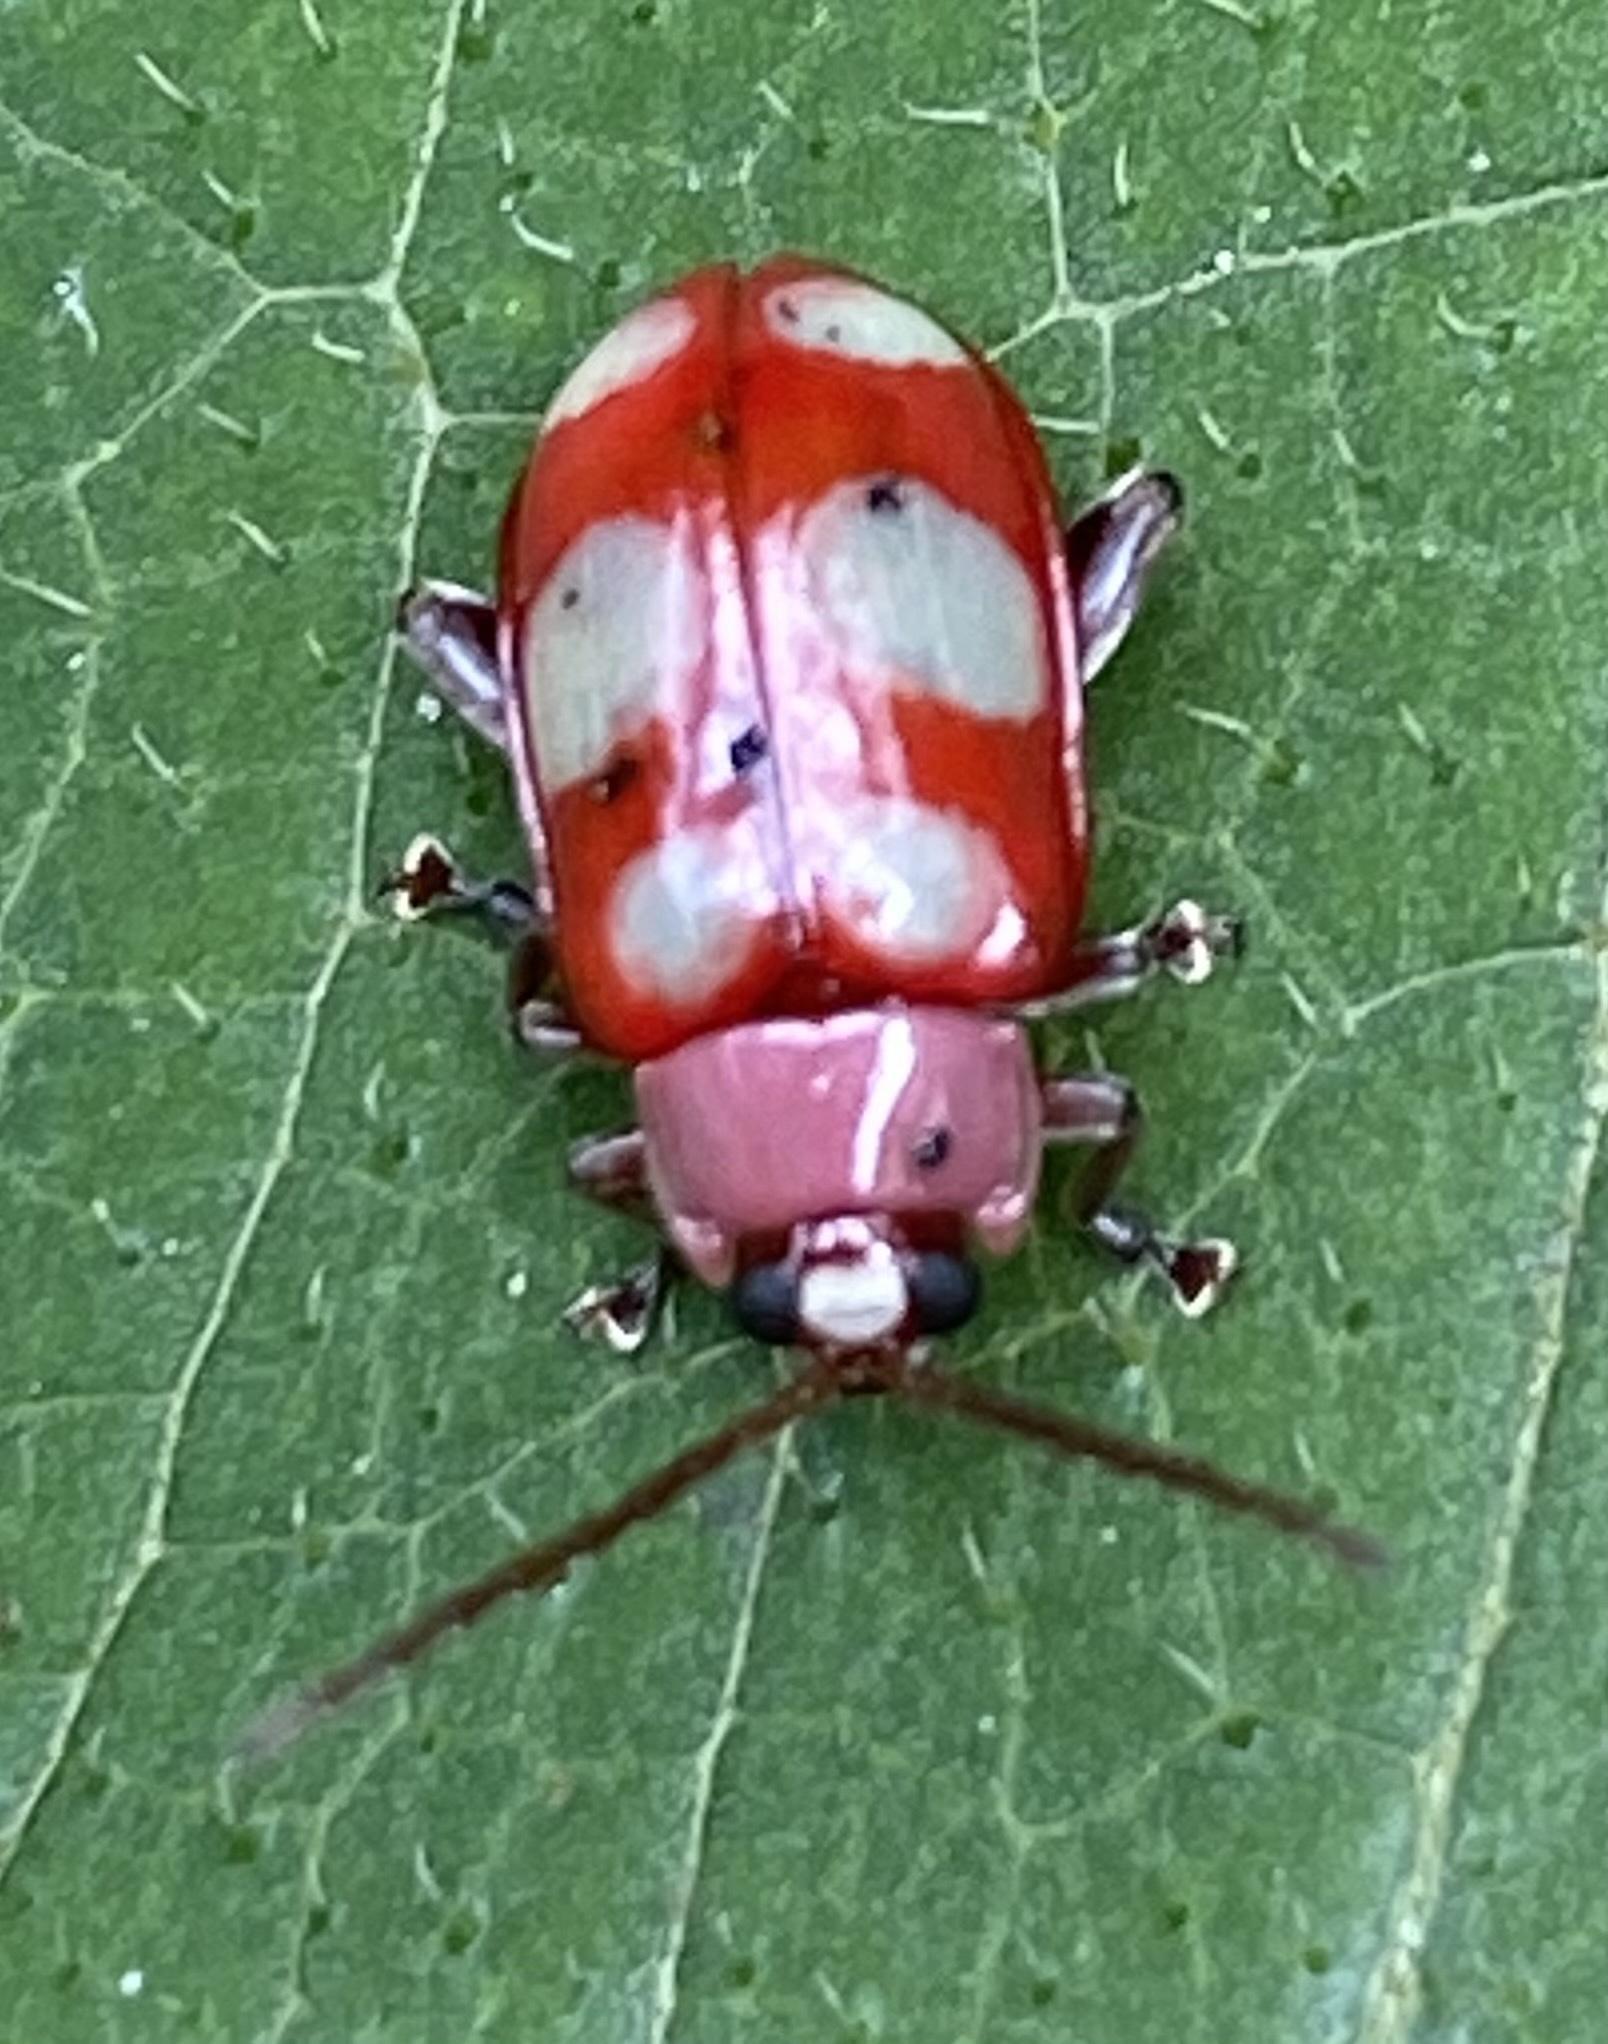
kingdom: Animalia
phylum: Arthropoda
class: Insecta
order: Coleoptera
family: Chrysomelidae
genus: Omophoita
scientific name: Omophoita sexnotata
